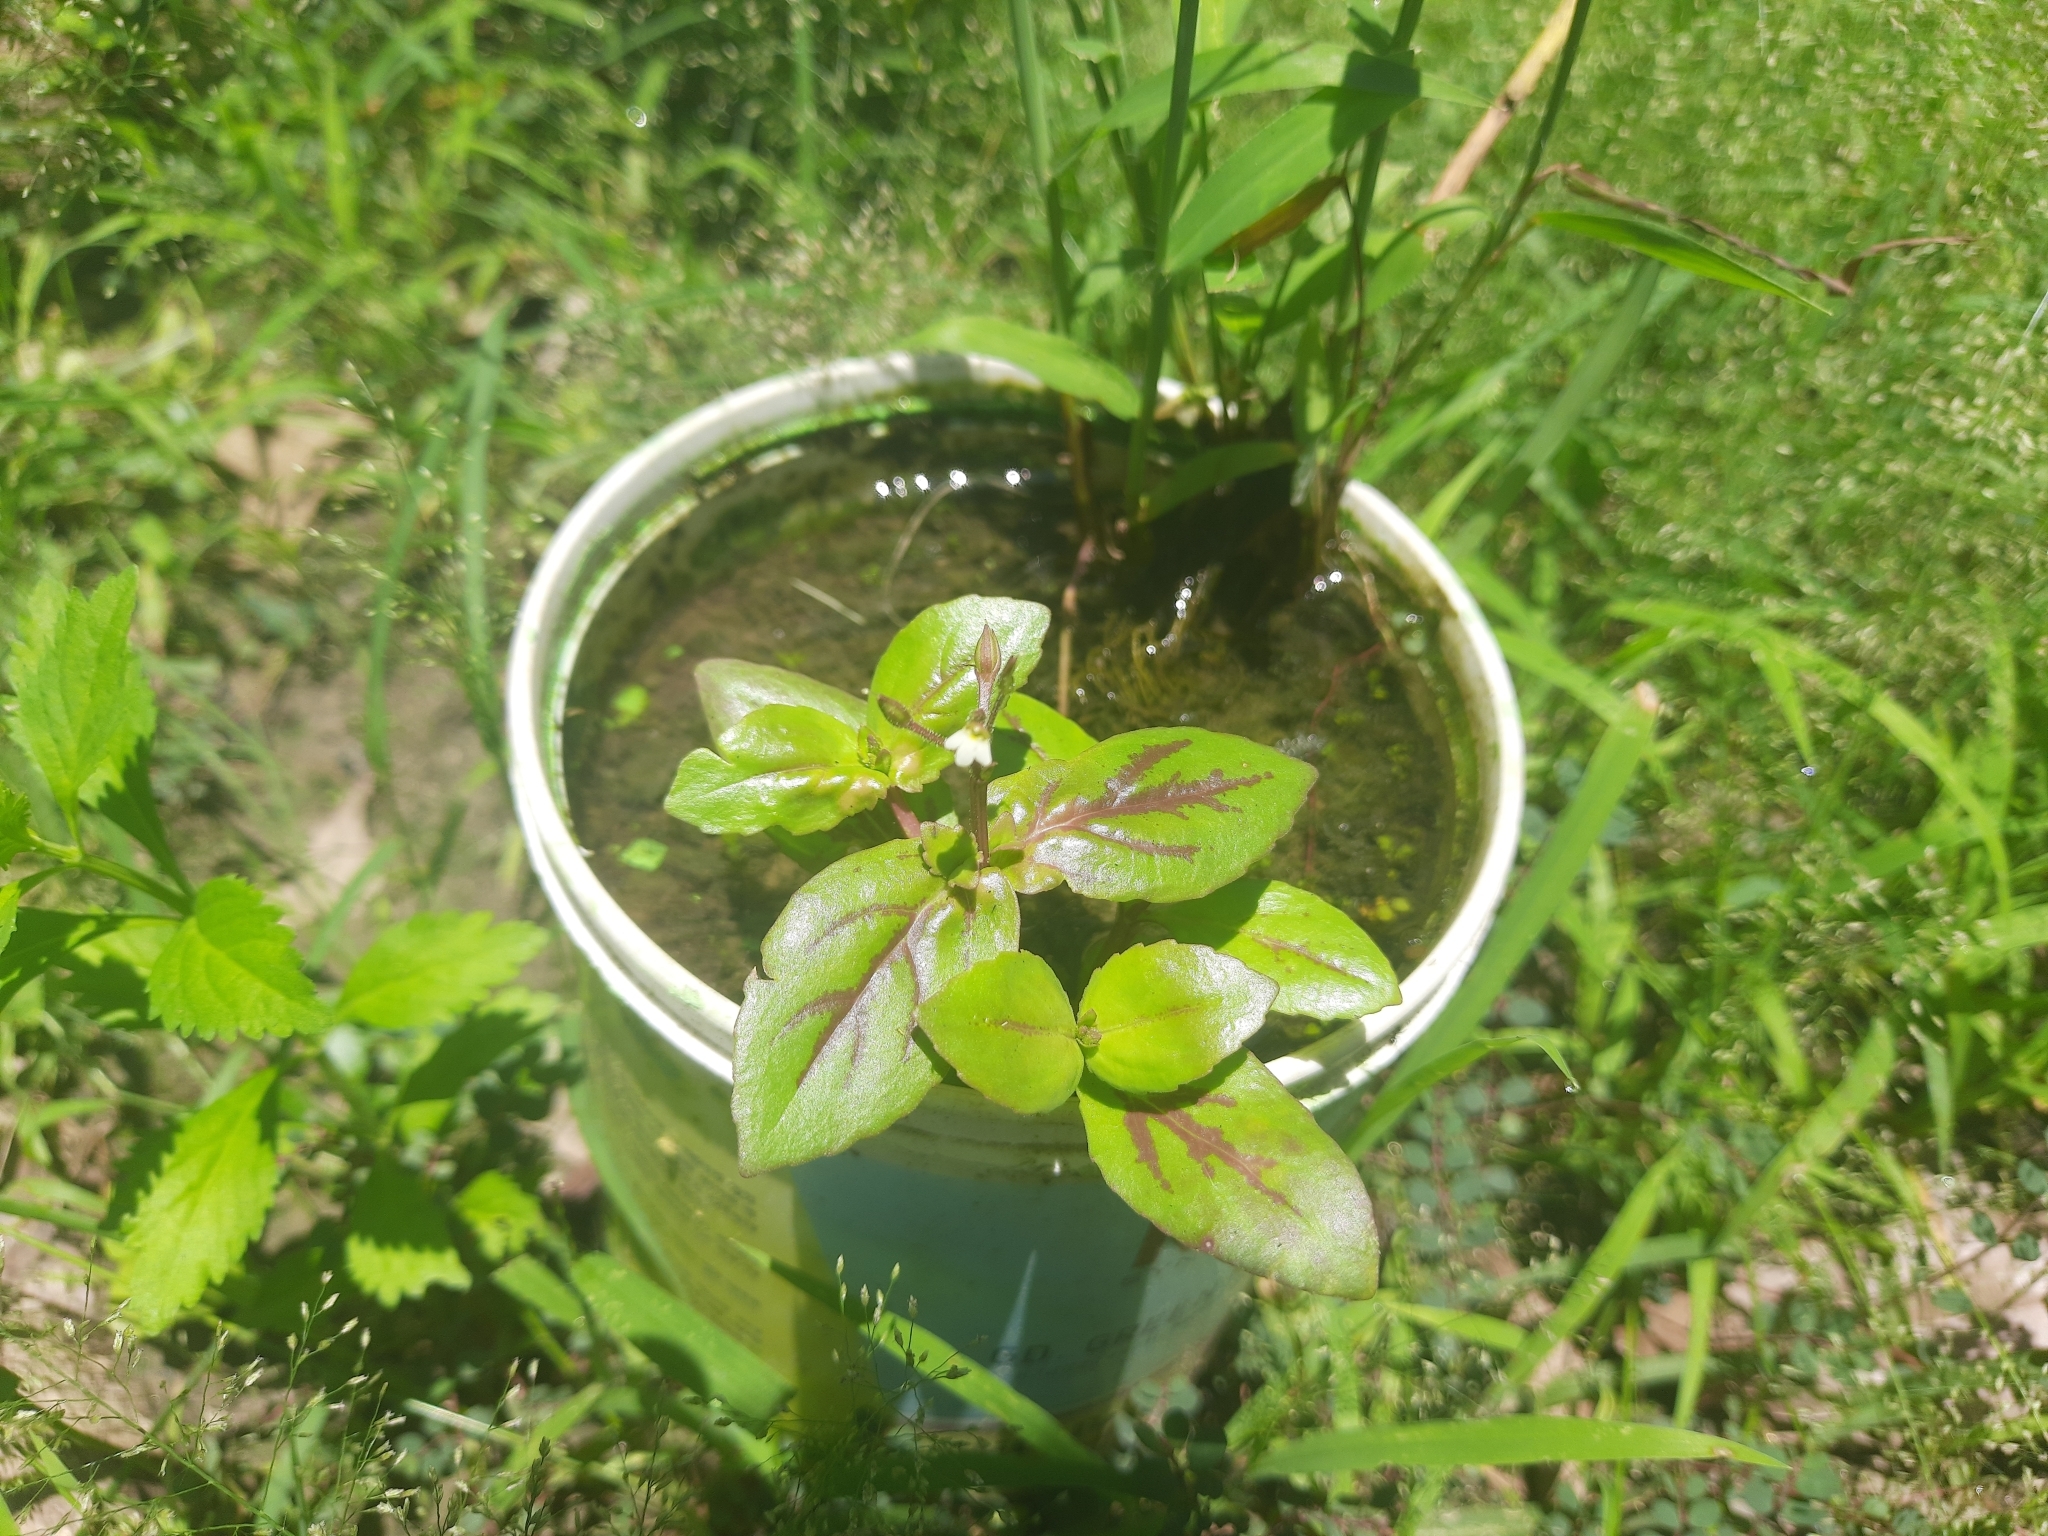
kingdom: Plantae
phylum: Tracheophyta
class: Magnoliopsida
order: Lamiales
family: Linderniaceae
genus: Yamazakia
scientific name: Yamazakia viscosa
